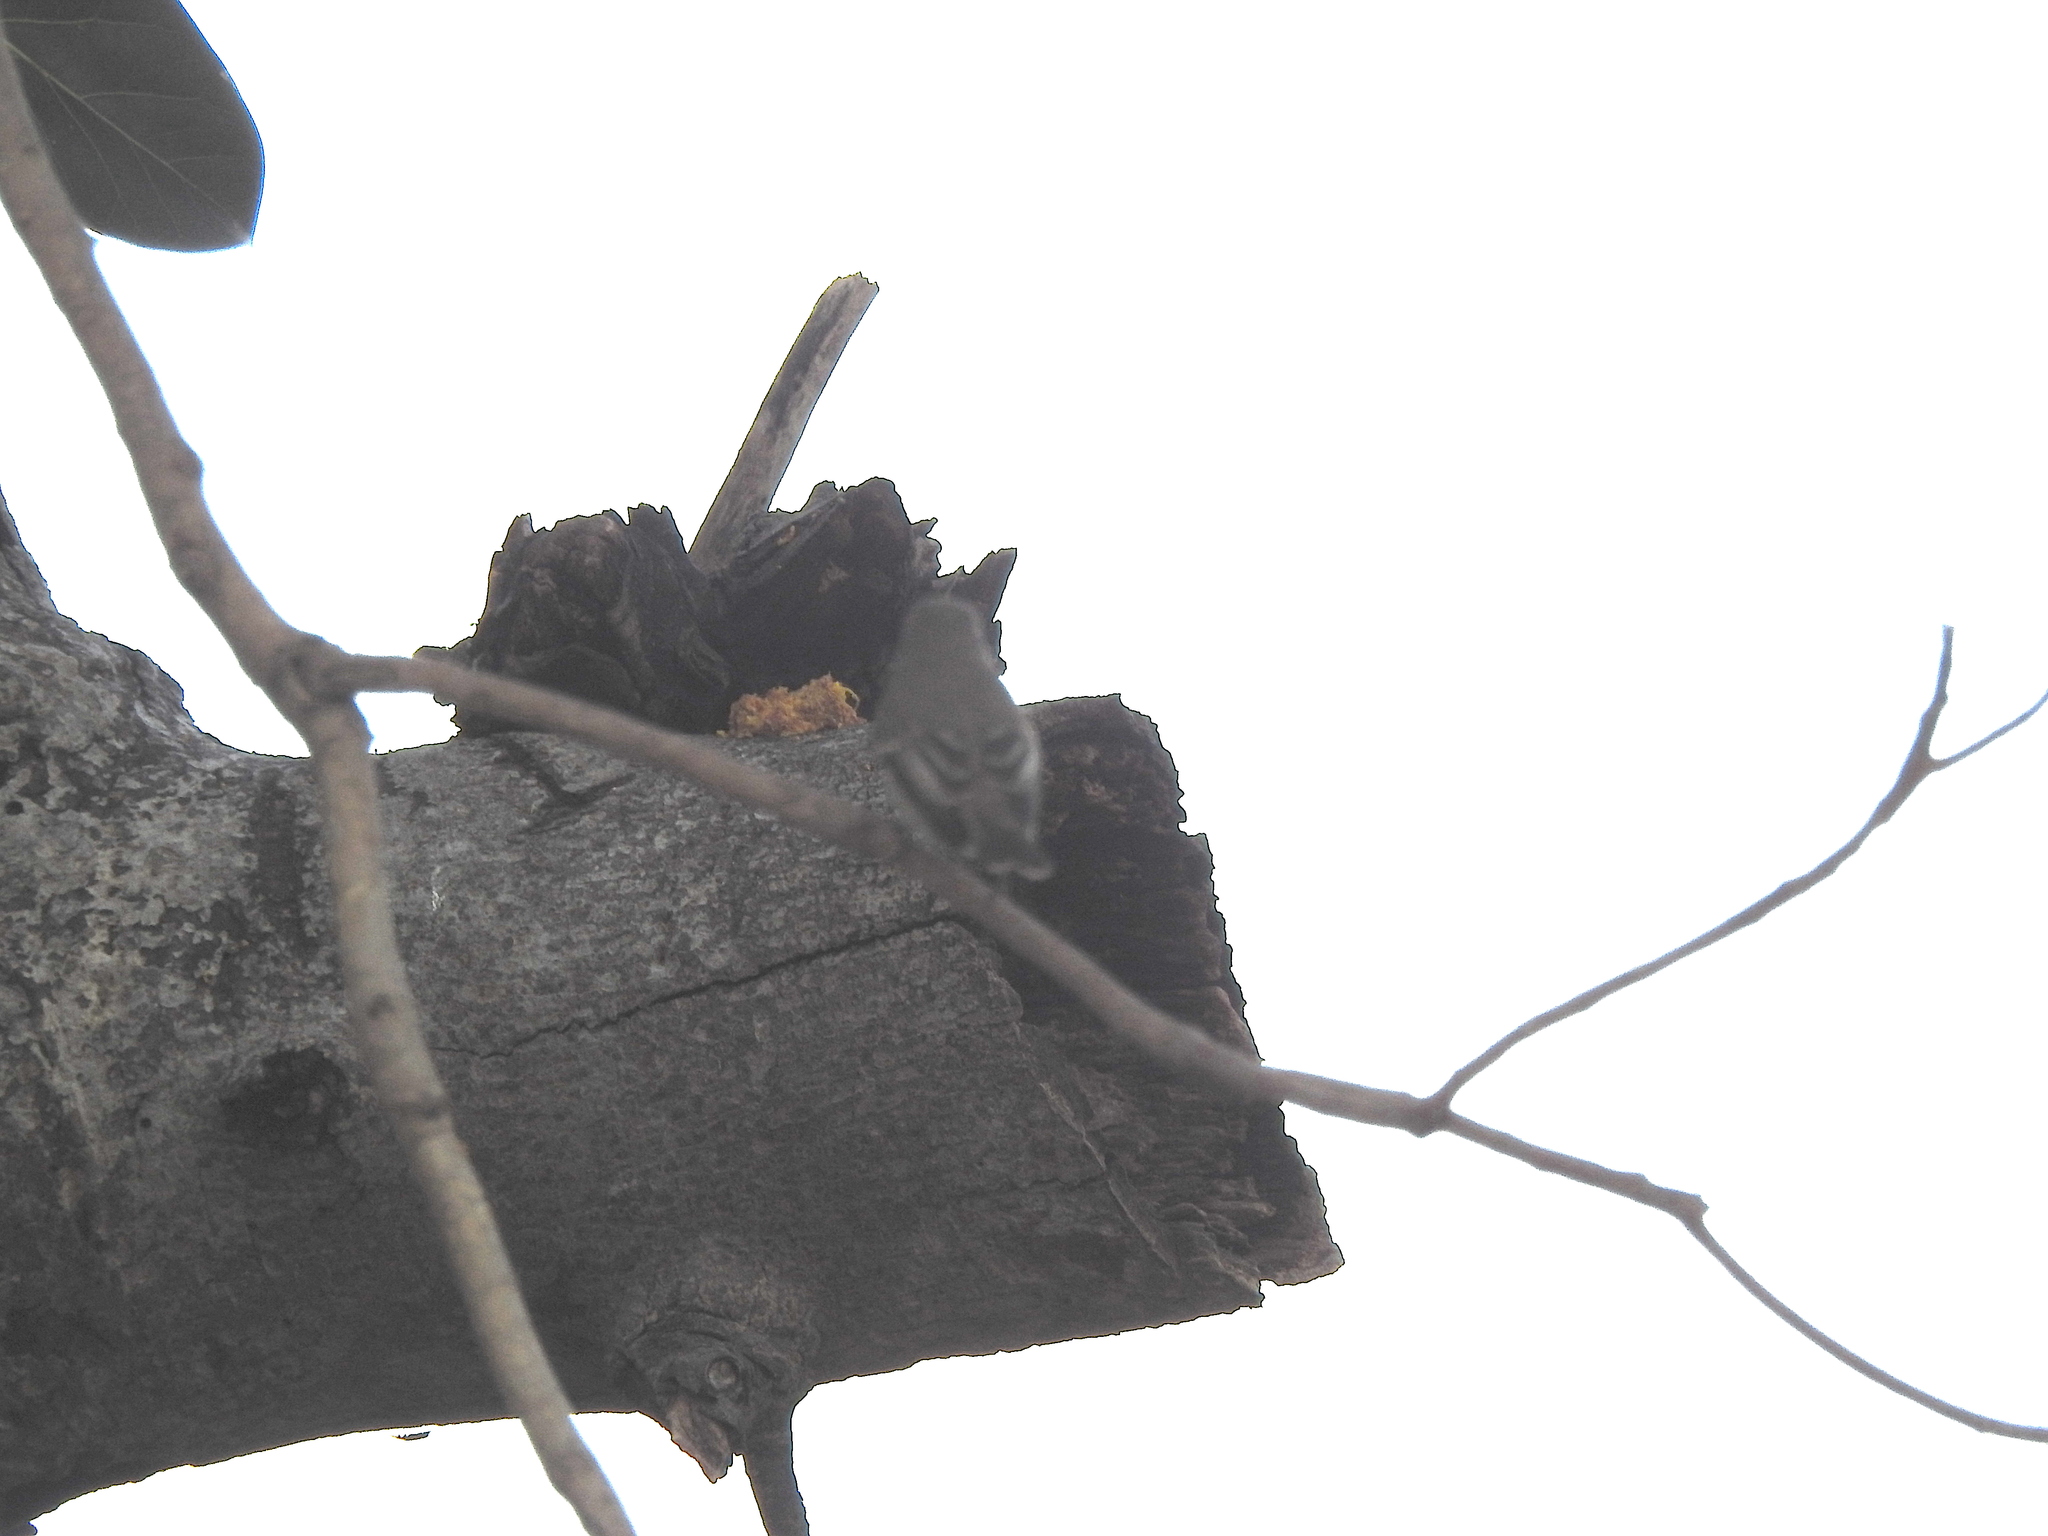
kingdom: Animalia
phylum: Chordata
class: Aves
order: Passeriformes
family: Muscicapidae
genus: Muscicapa
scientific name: Muscicapa latirostris
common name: Asian brown flycatcher
